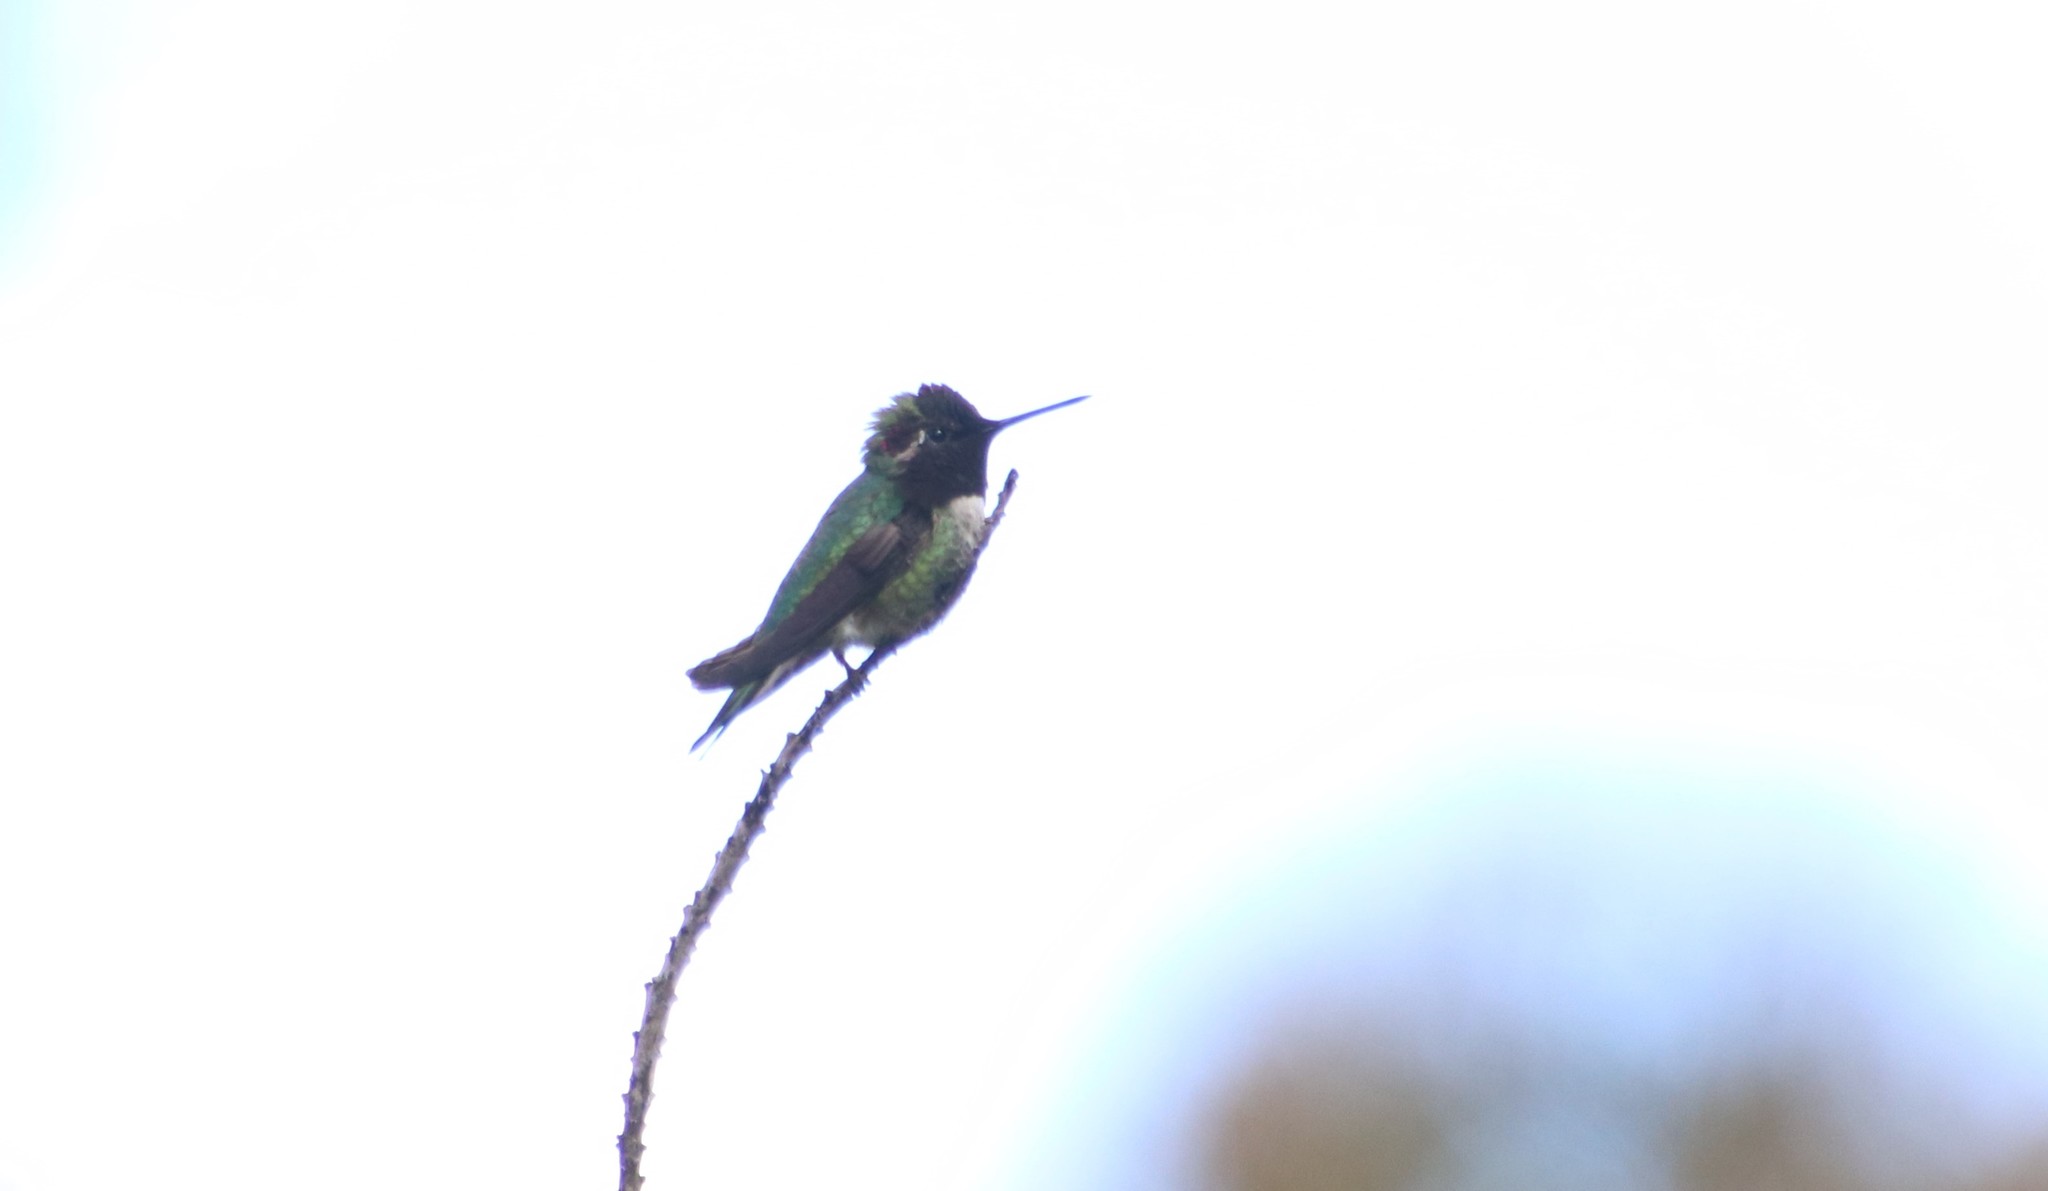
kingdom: Animalia
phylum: Chordata
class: Aves
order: Apodiformes
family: Trochilidae
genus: Calypte
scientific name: Calypte anna
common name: Anna's hummingbird
